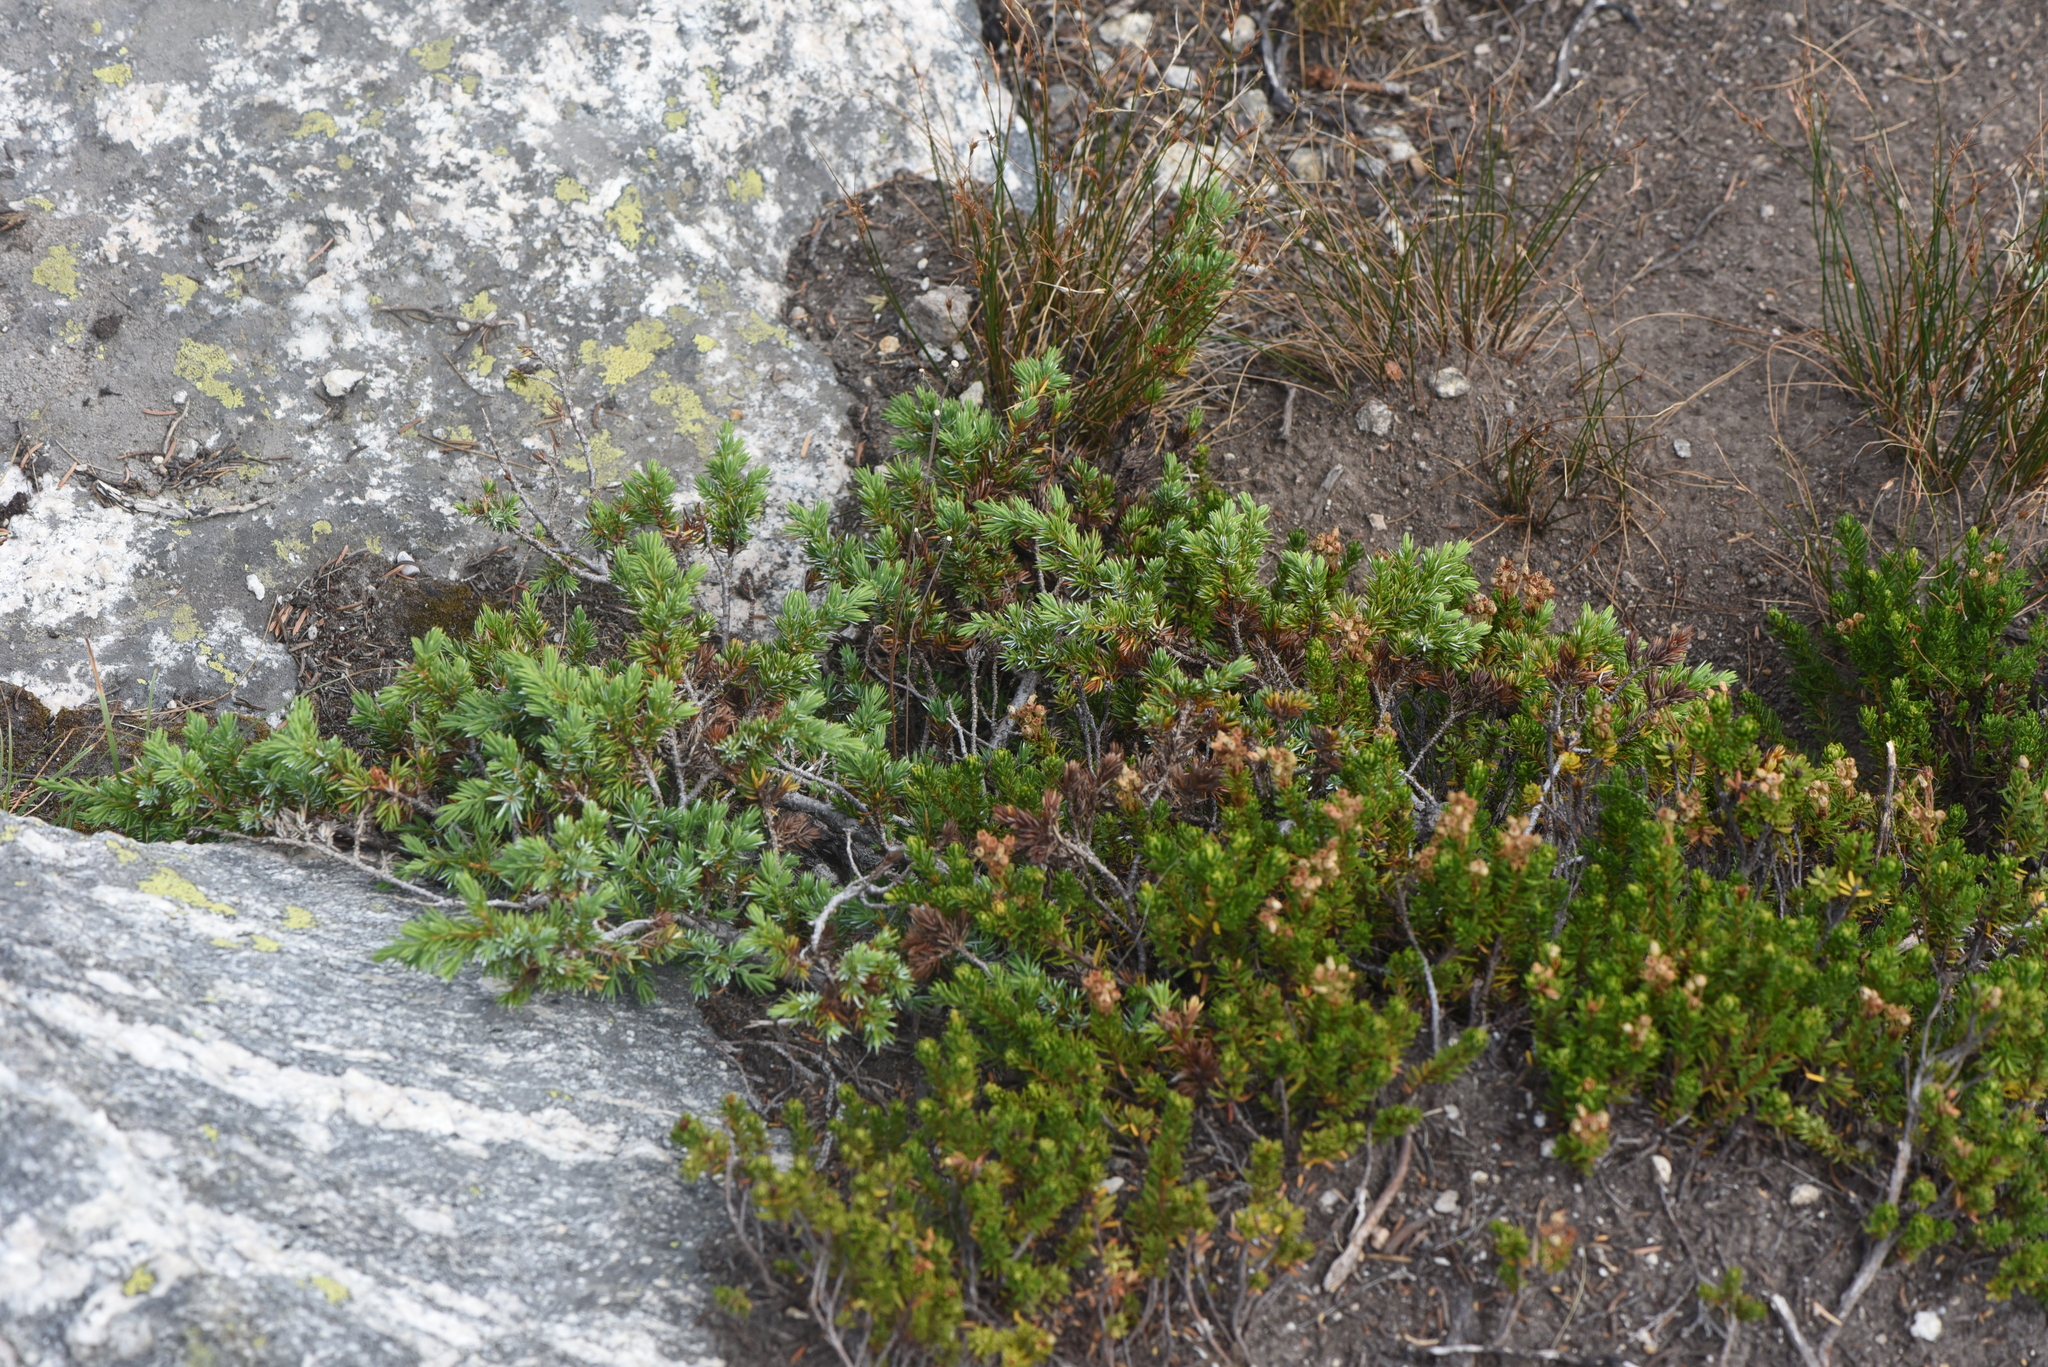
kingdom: Plantae
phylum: Tracheophyta
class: Pinopsida
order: Pinales
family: Cupressaceae
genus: Juniperus
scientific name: Juniperus communis
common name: Common juniper
